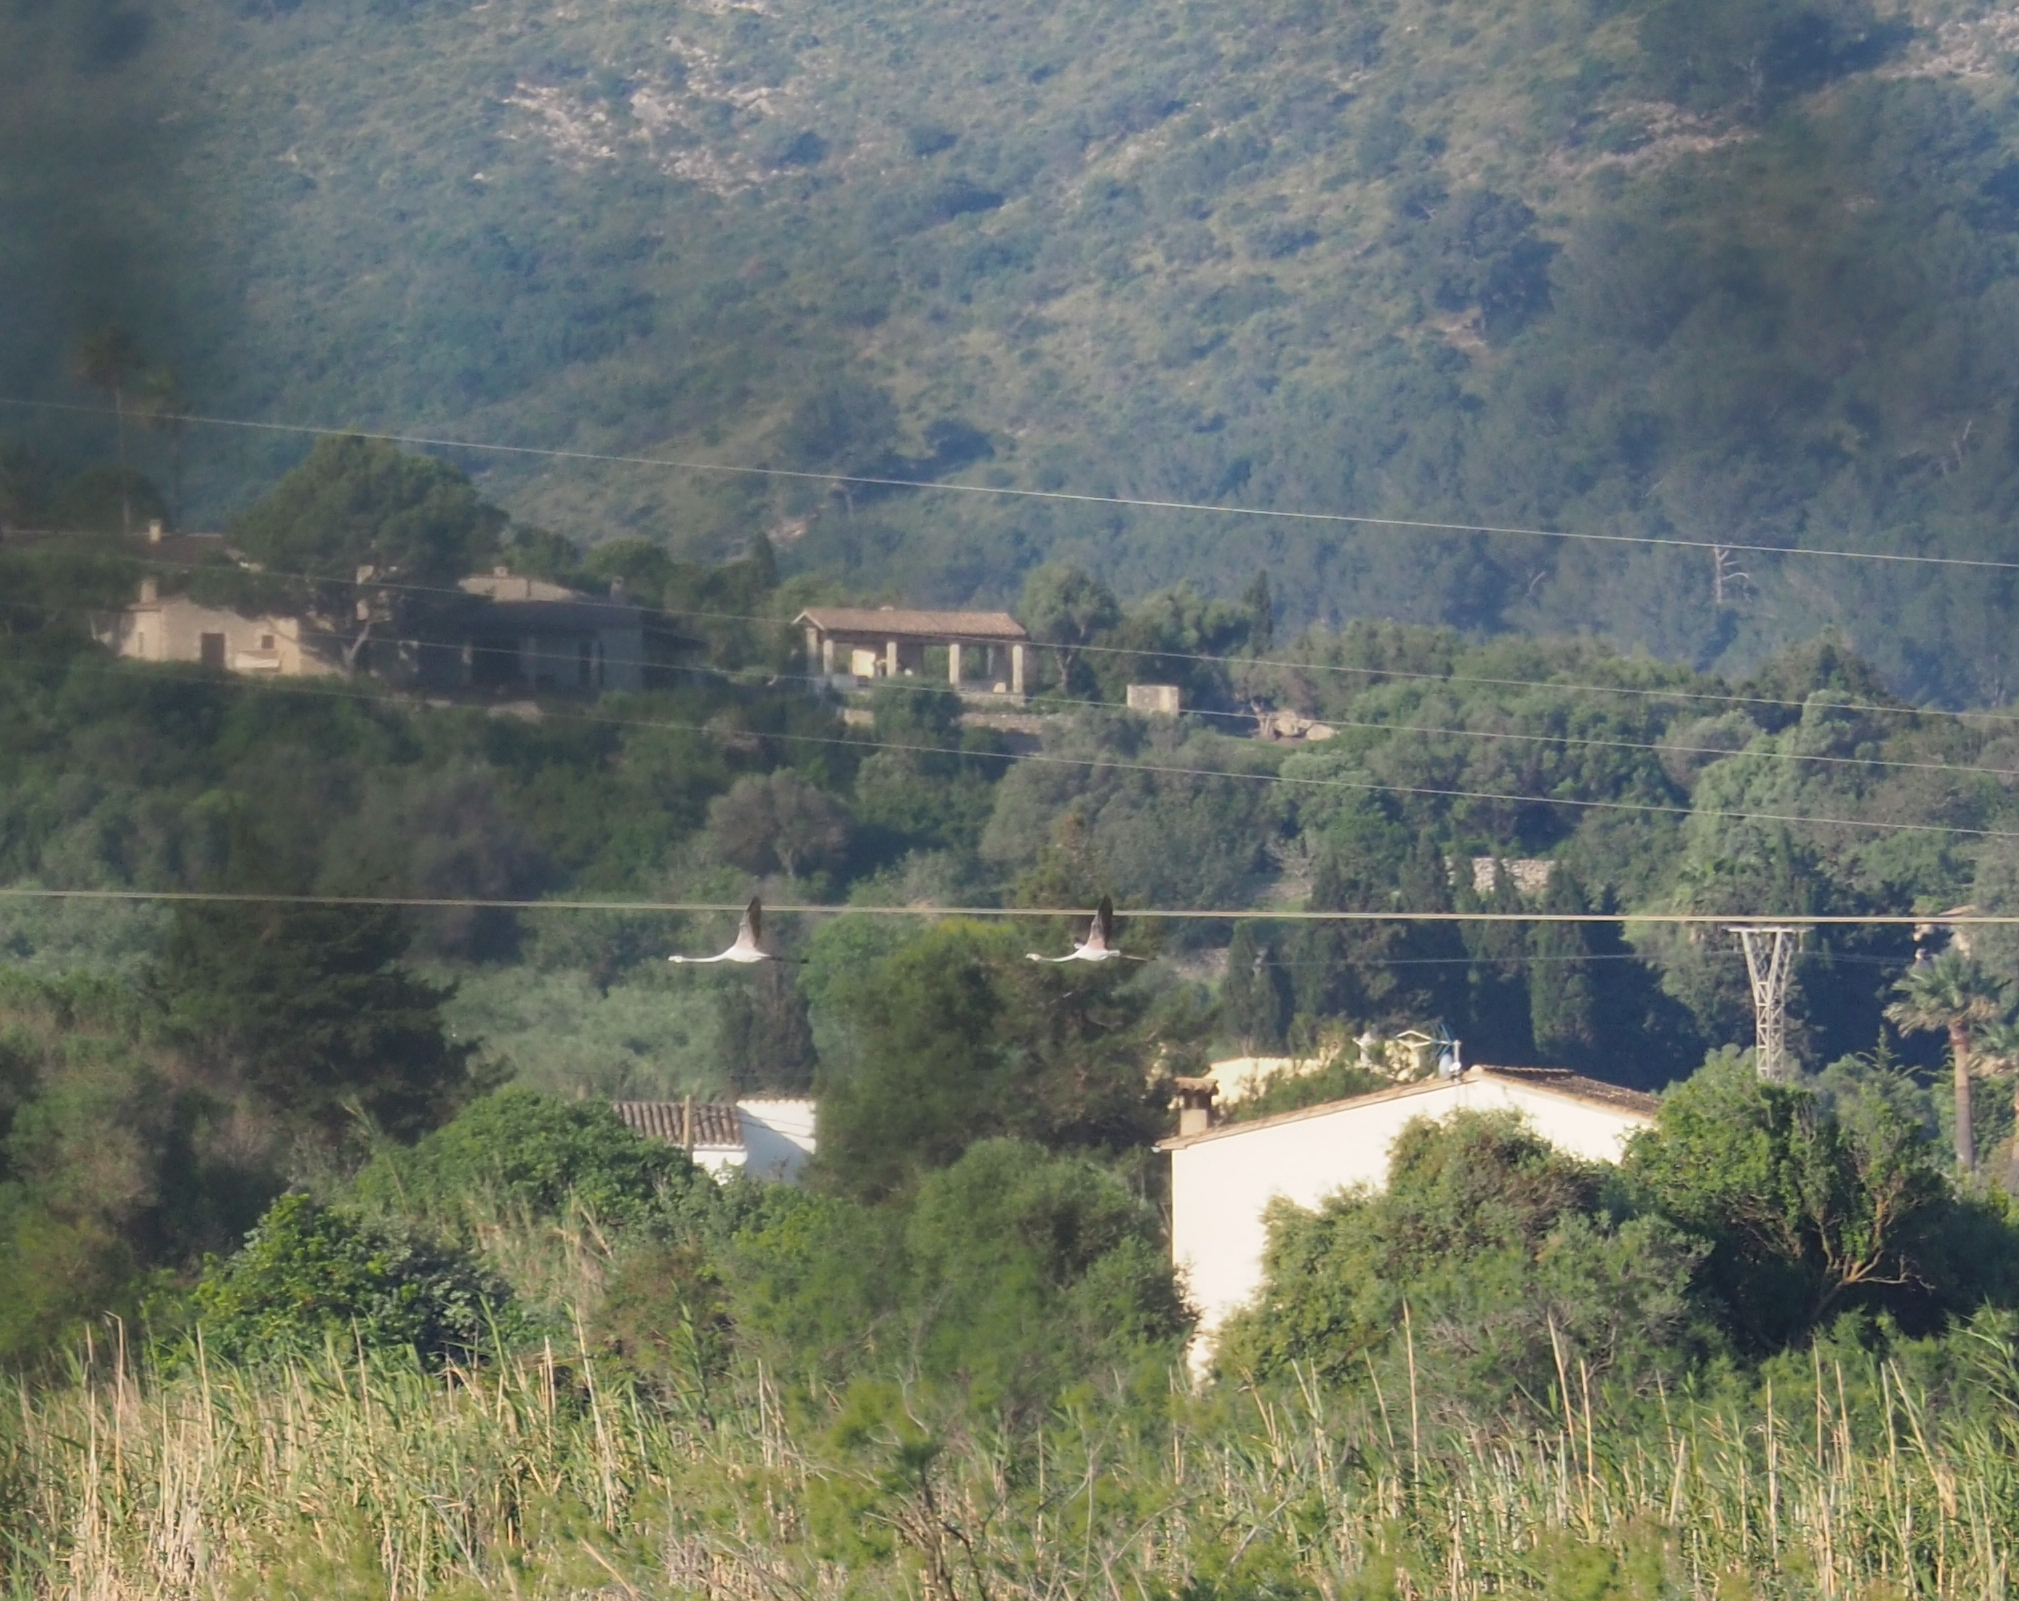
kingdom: Animalia
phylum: Chordata
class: Aves
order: Phoenicopteriformes
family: Phoenicopteridae
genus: Phoenicopterus
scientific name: Phoenicopterus roseus
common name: Greater flamingo
